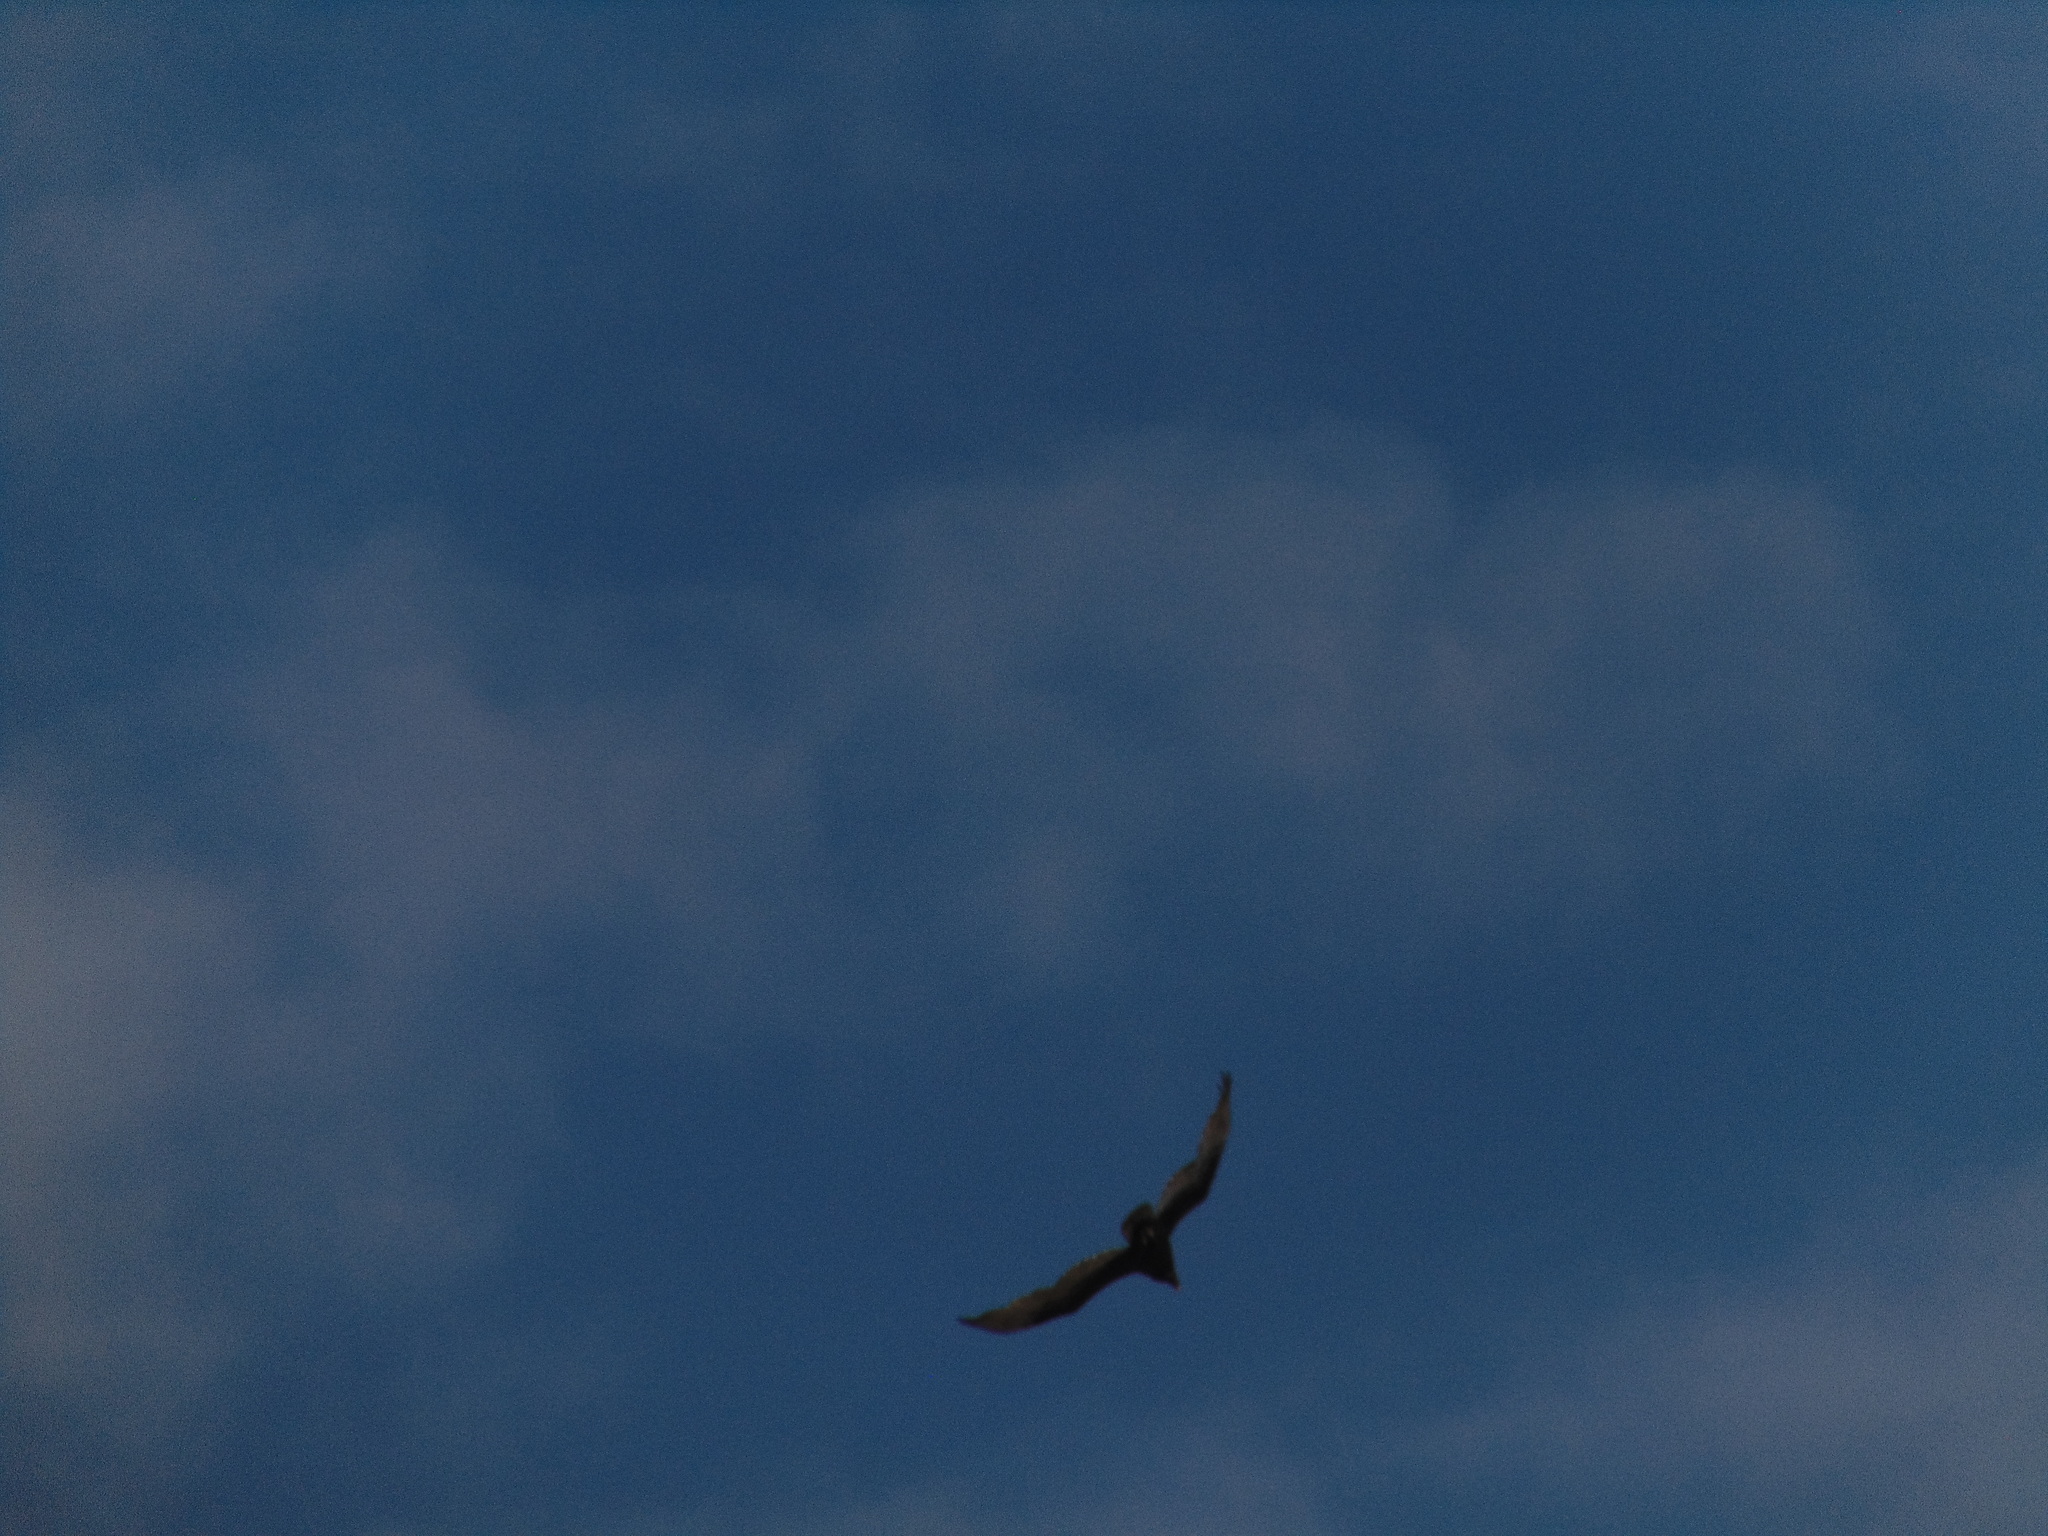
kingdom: Animalia
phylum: Chordata
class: Aves
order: Accipitriformes
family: Cathartidae
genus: Cathartes
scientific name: Cathartes aura
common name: Turkey vulture
